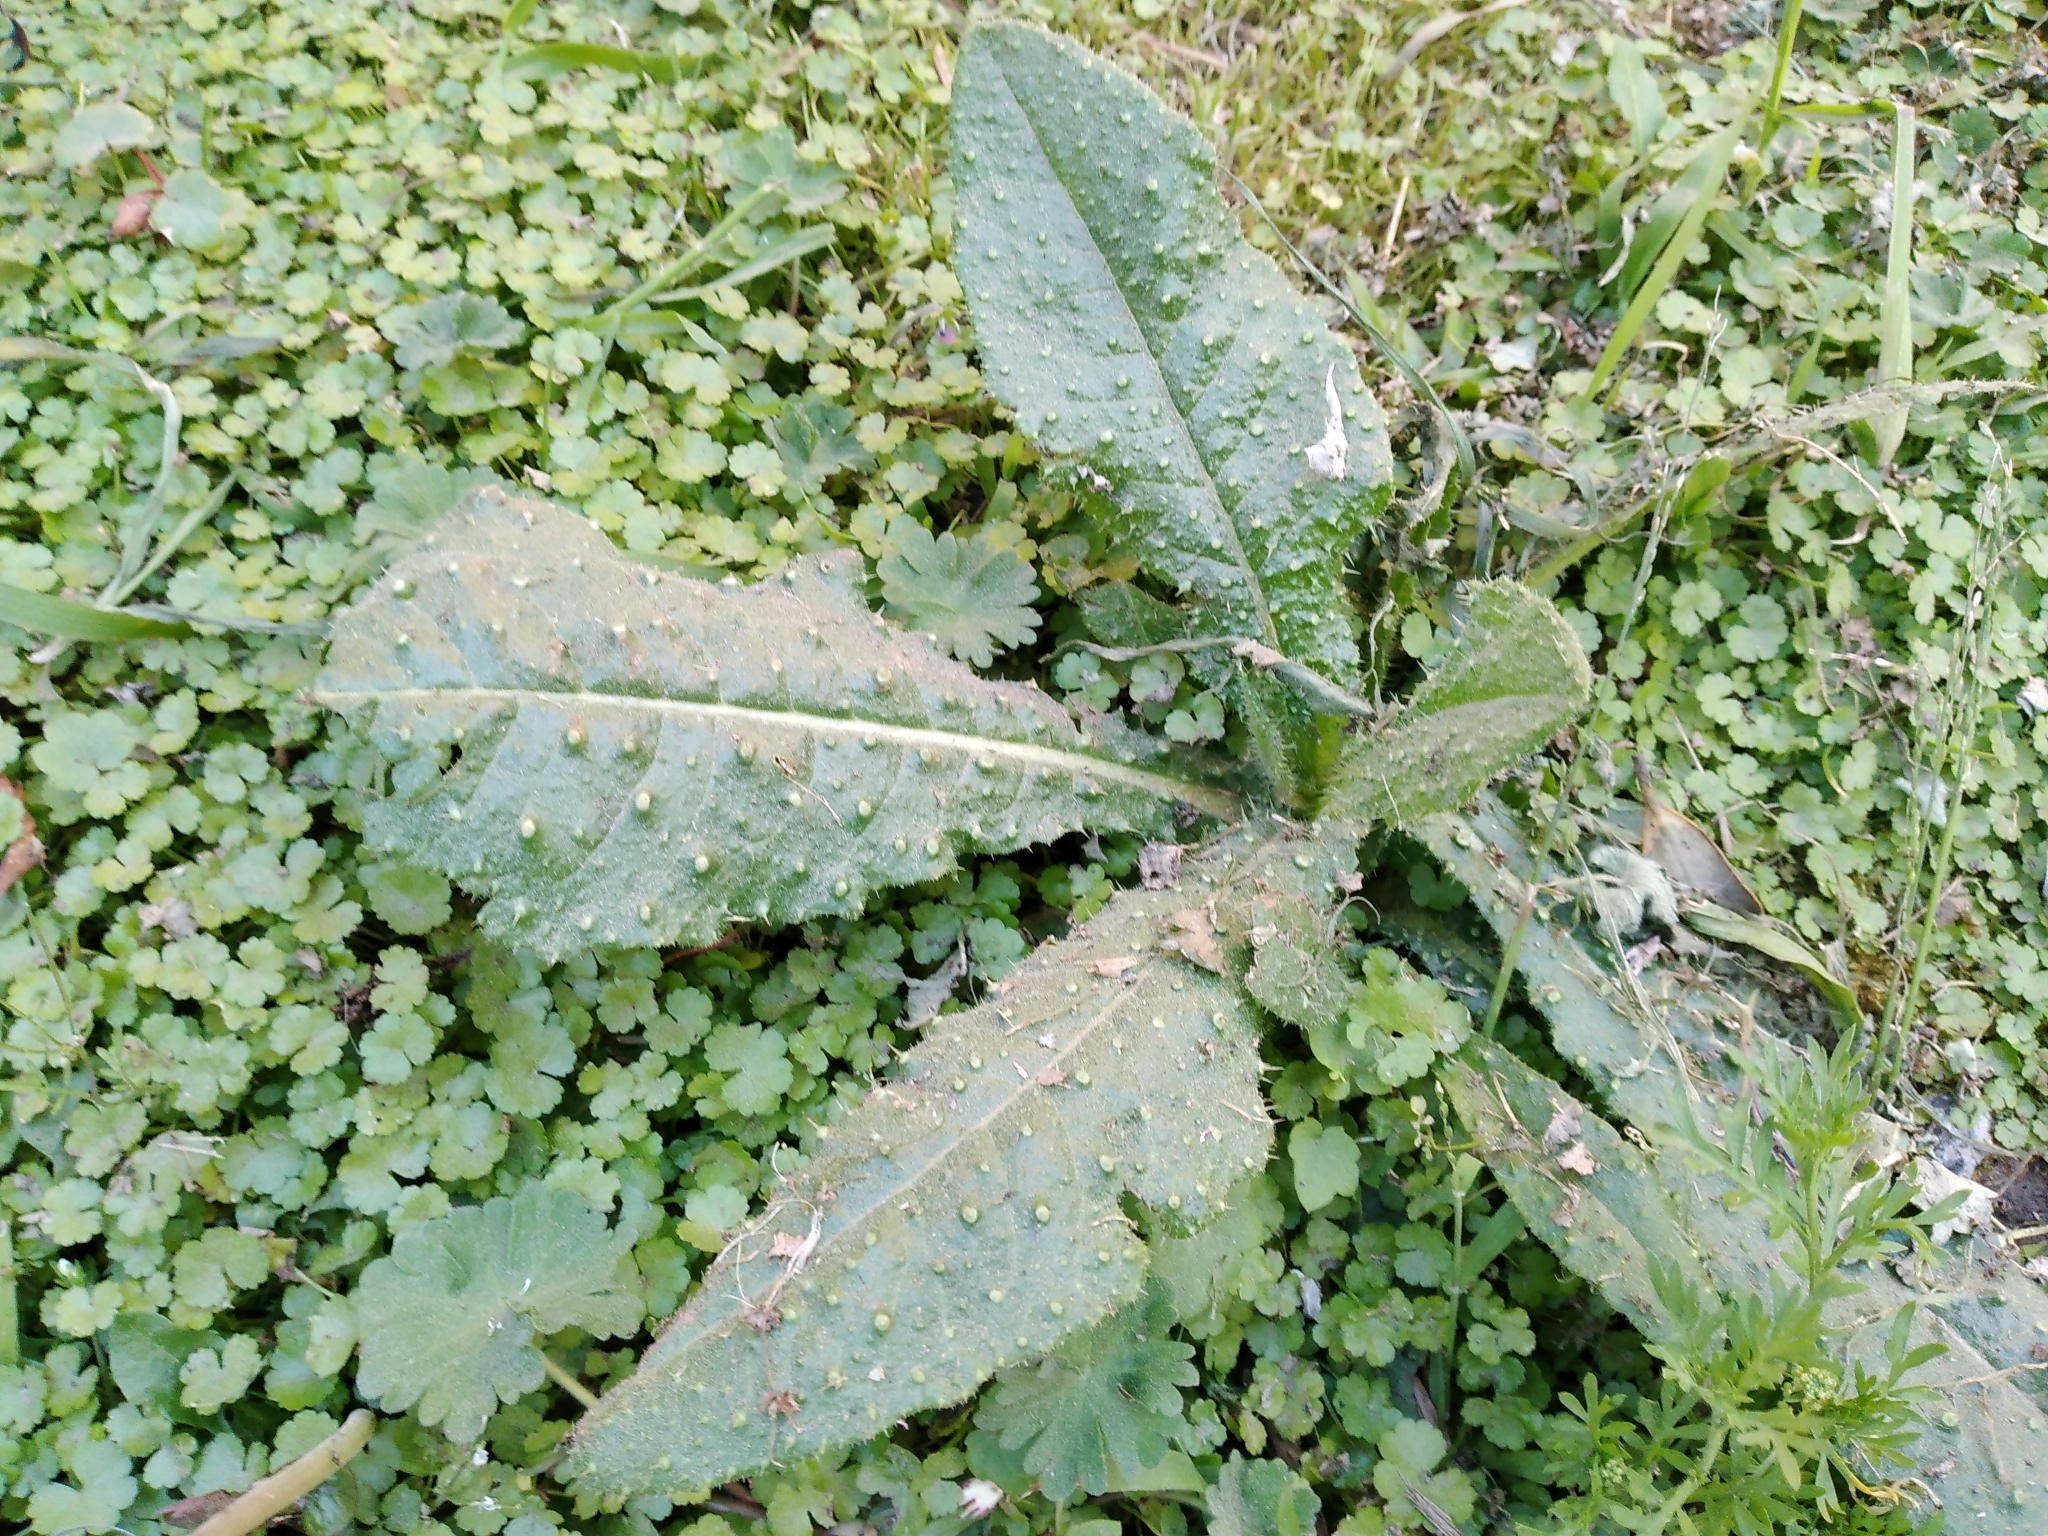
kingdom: Plantae
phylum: Tracheophyta
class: Magnoliopsida
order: Asterales
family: Asteraceae
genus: Helminthotheca
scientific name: Helminthotheca echioides
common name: Ox-tongue
